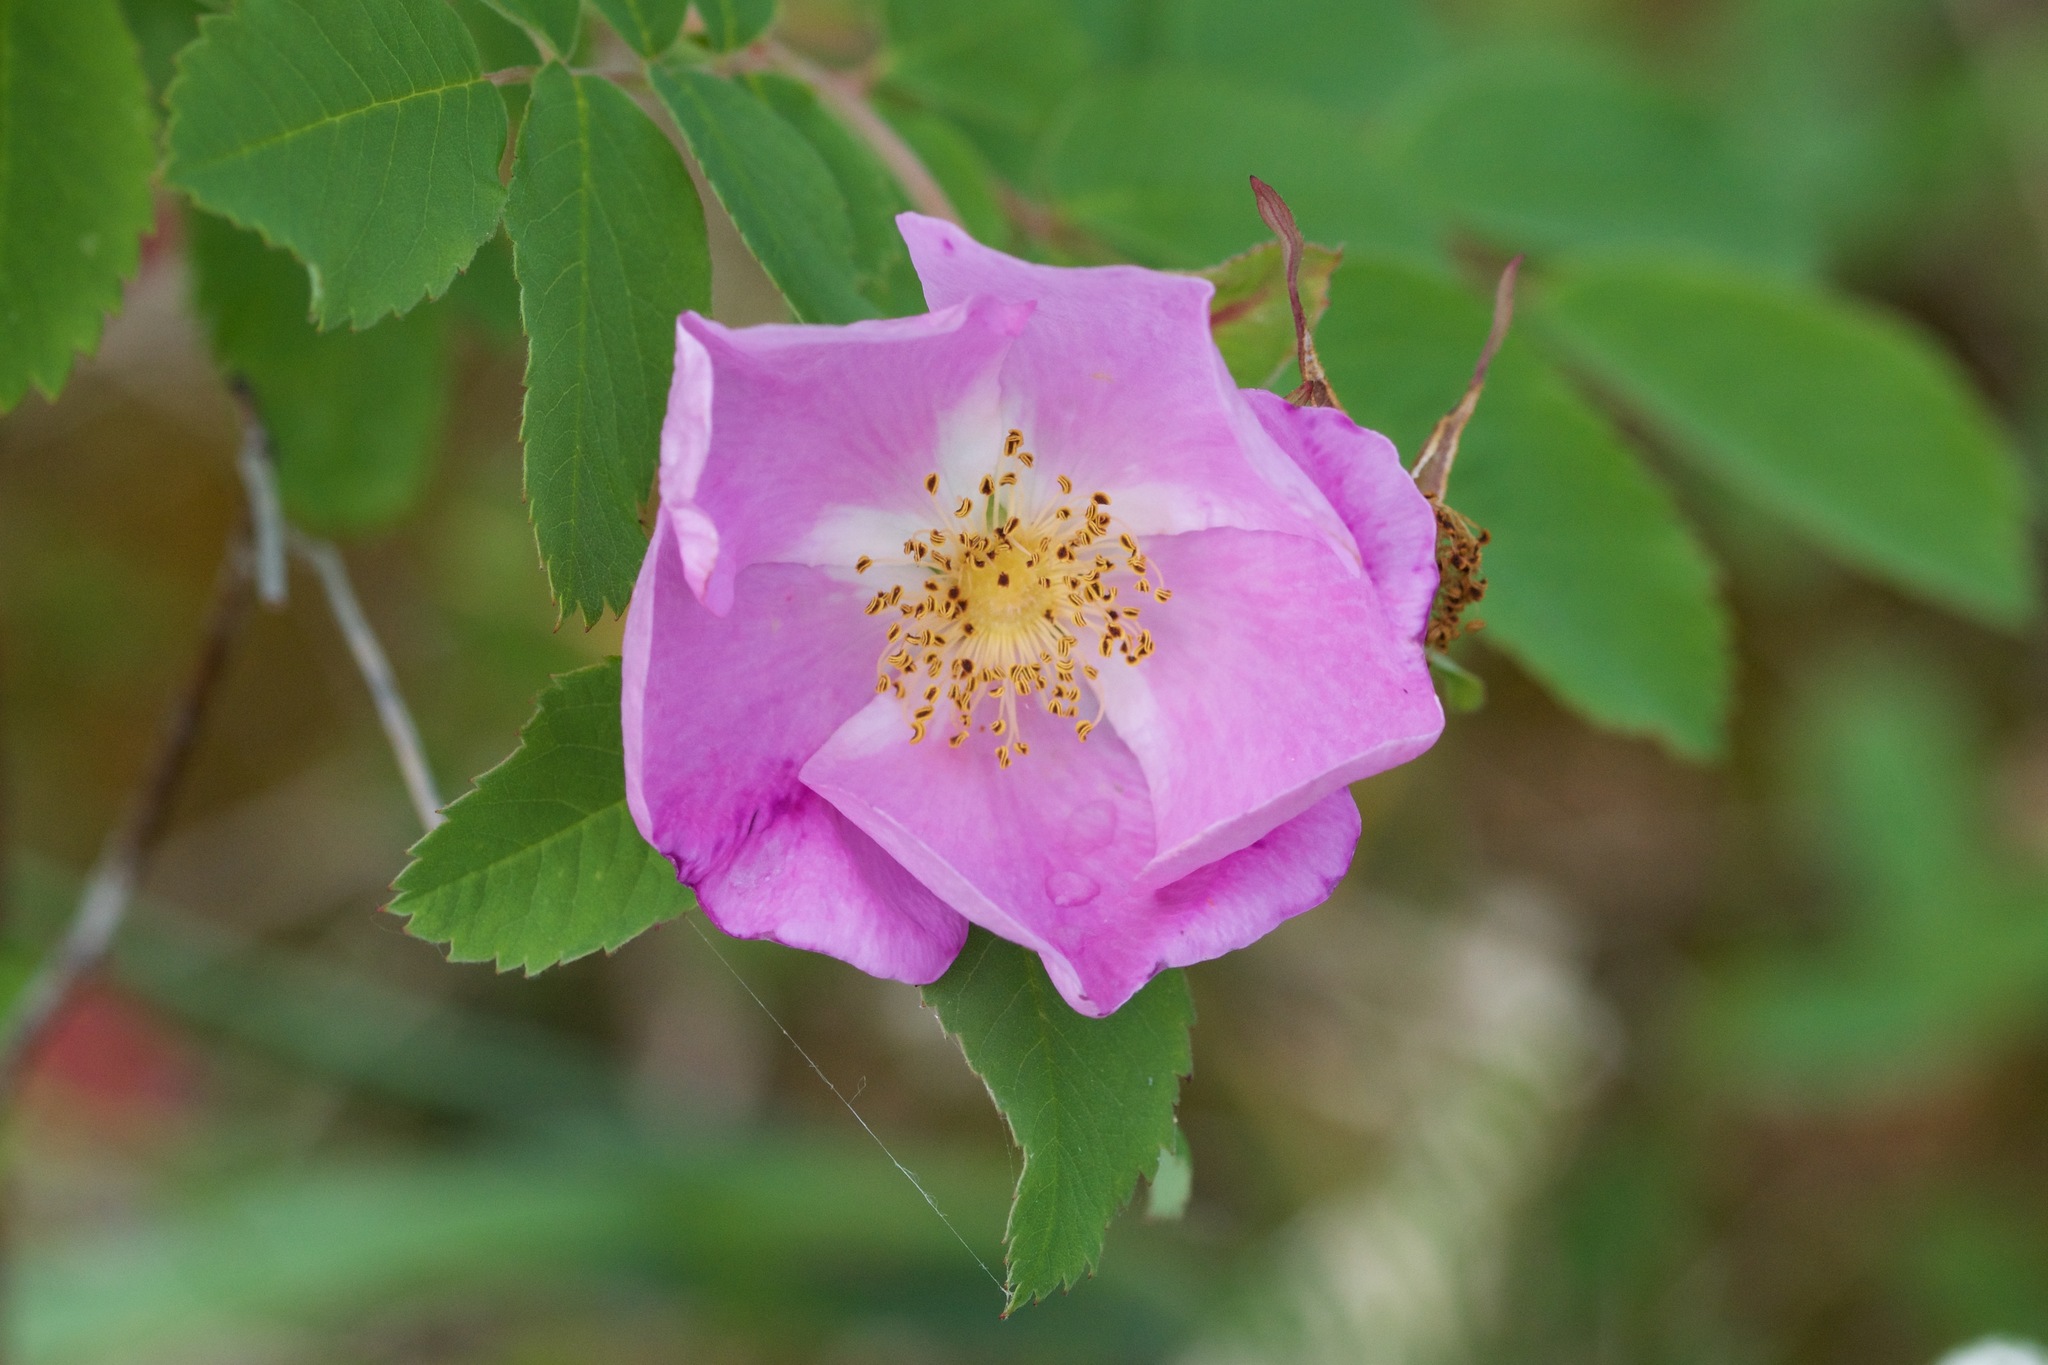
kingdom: Plantae
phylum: Tracheophyta
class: Magnoliopsida
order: Rosales
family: Rosaceae
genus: Rosa
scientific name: Rosa acicularis
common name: Prickly rose
